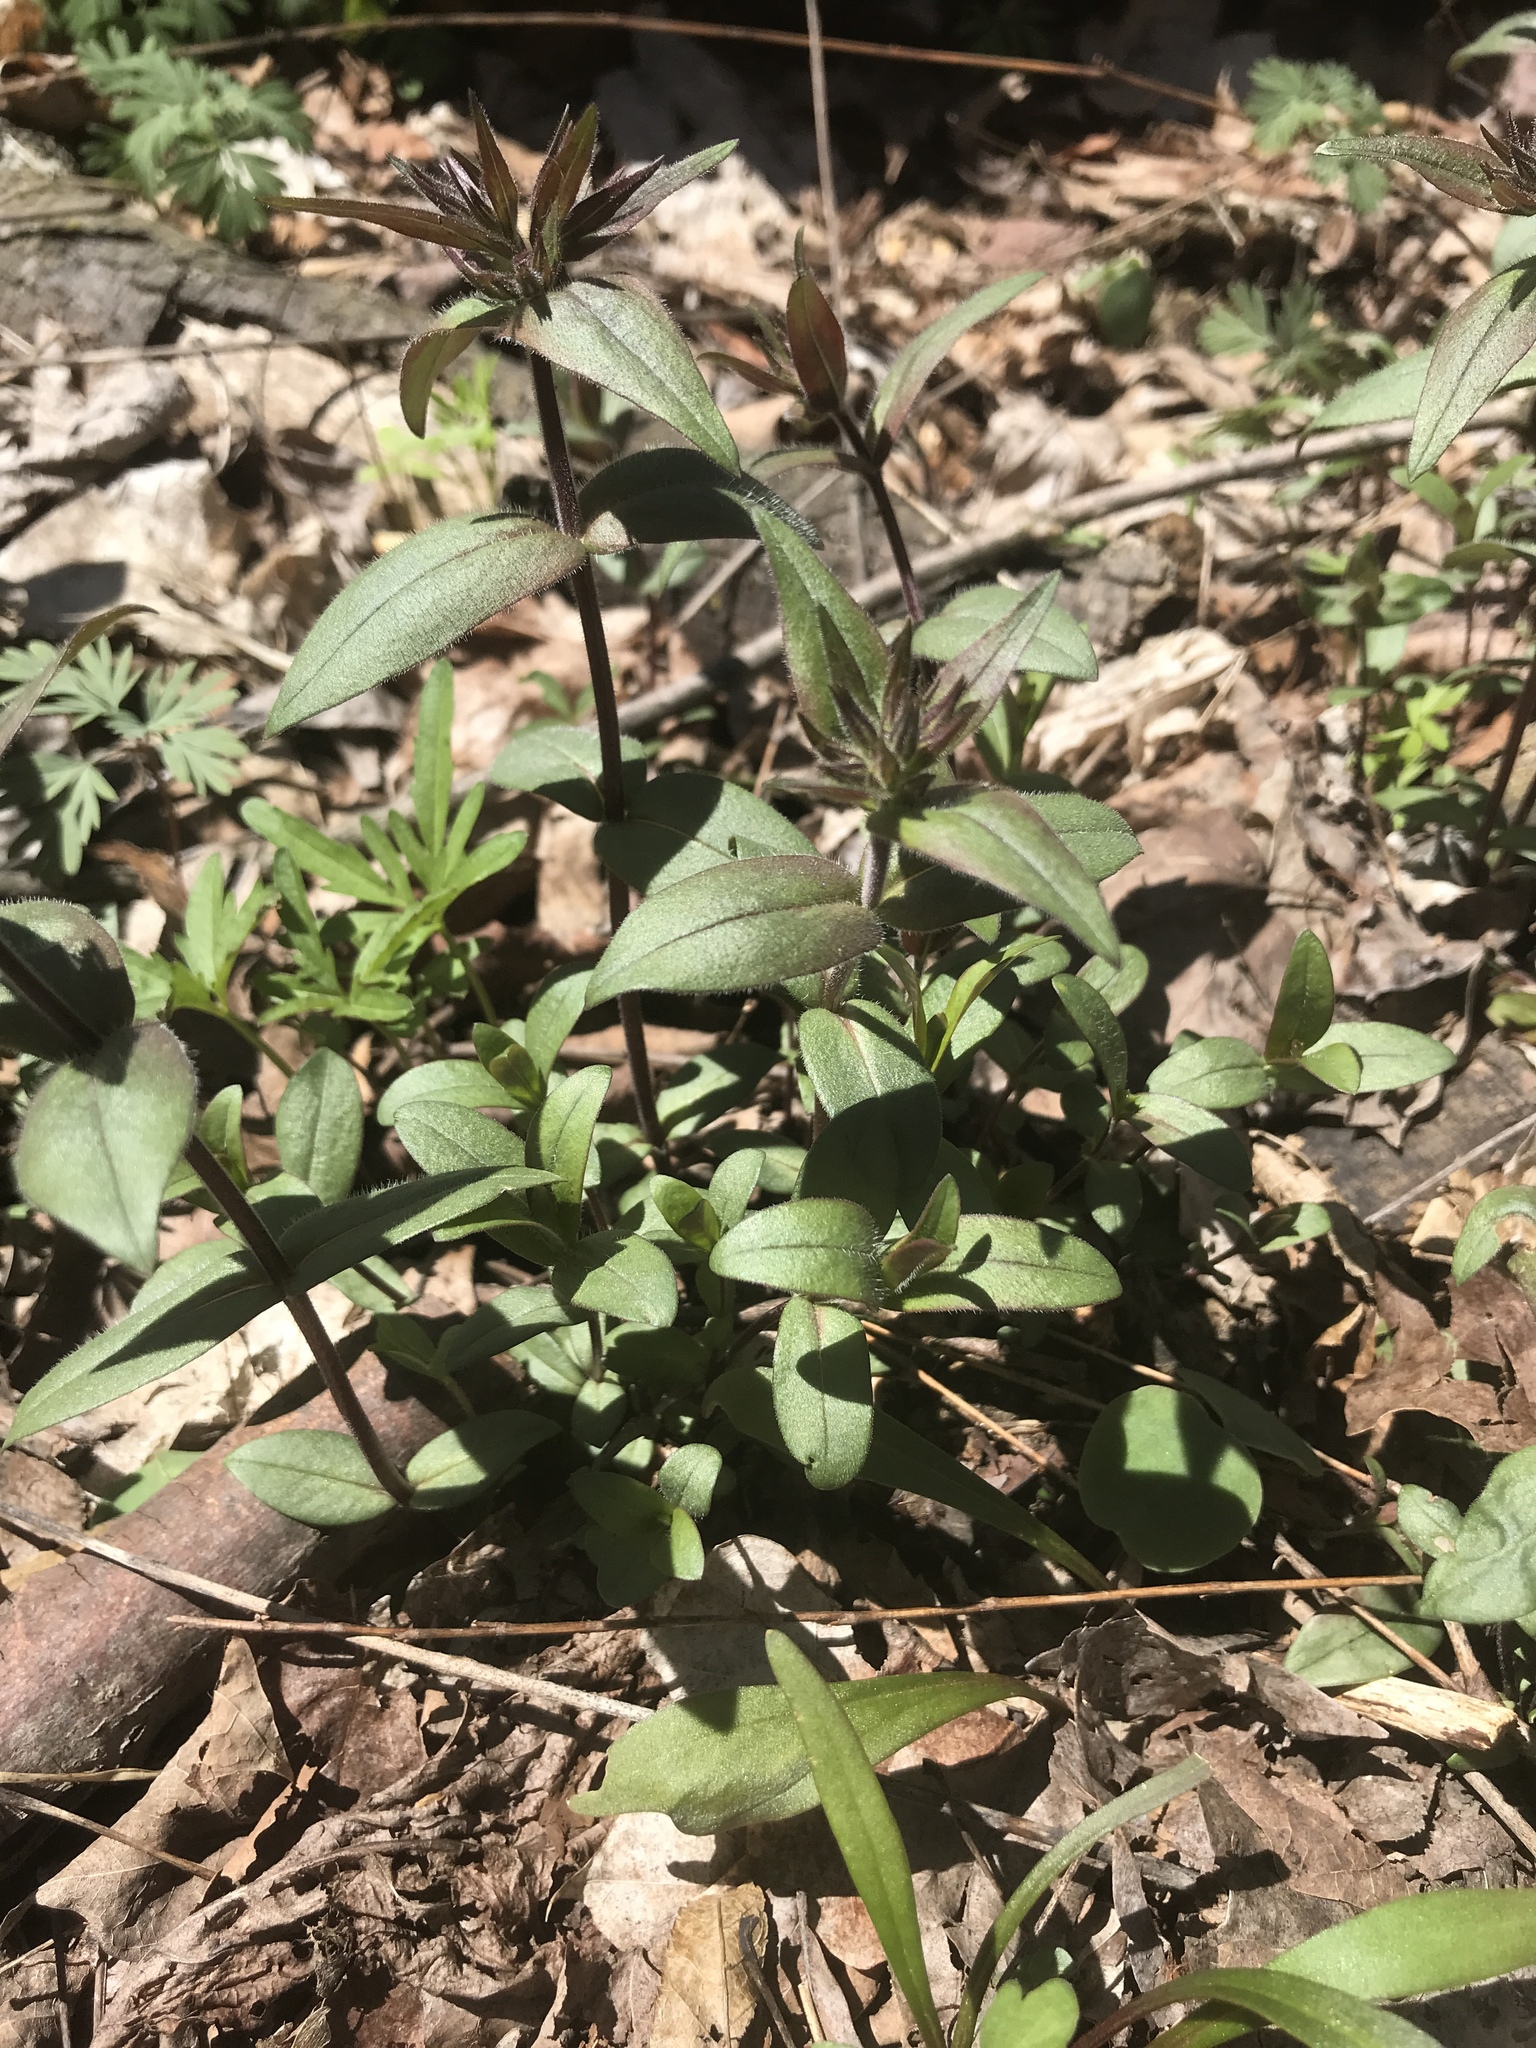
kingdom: Plantae
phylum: Tracheophyta
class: Magnoliopsida
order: Ericales
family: Polemoniaceae
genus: Phlox
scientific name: Phlox divaricata
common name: Blue phlox
